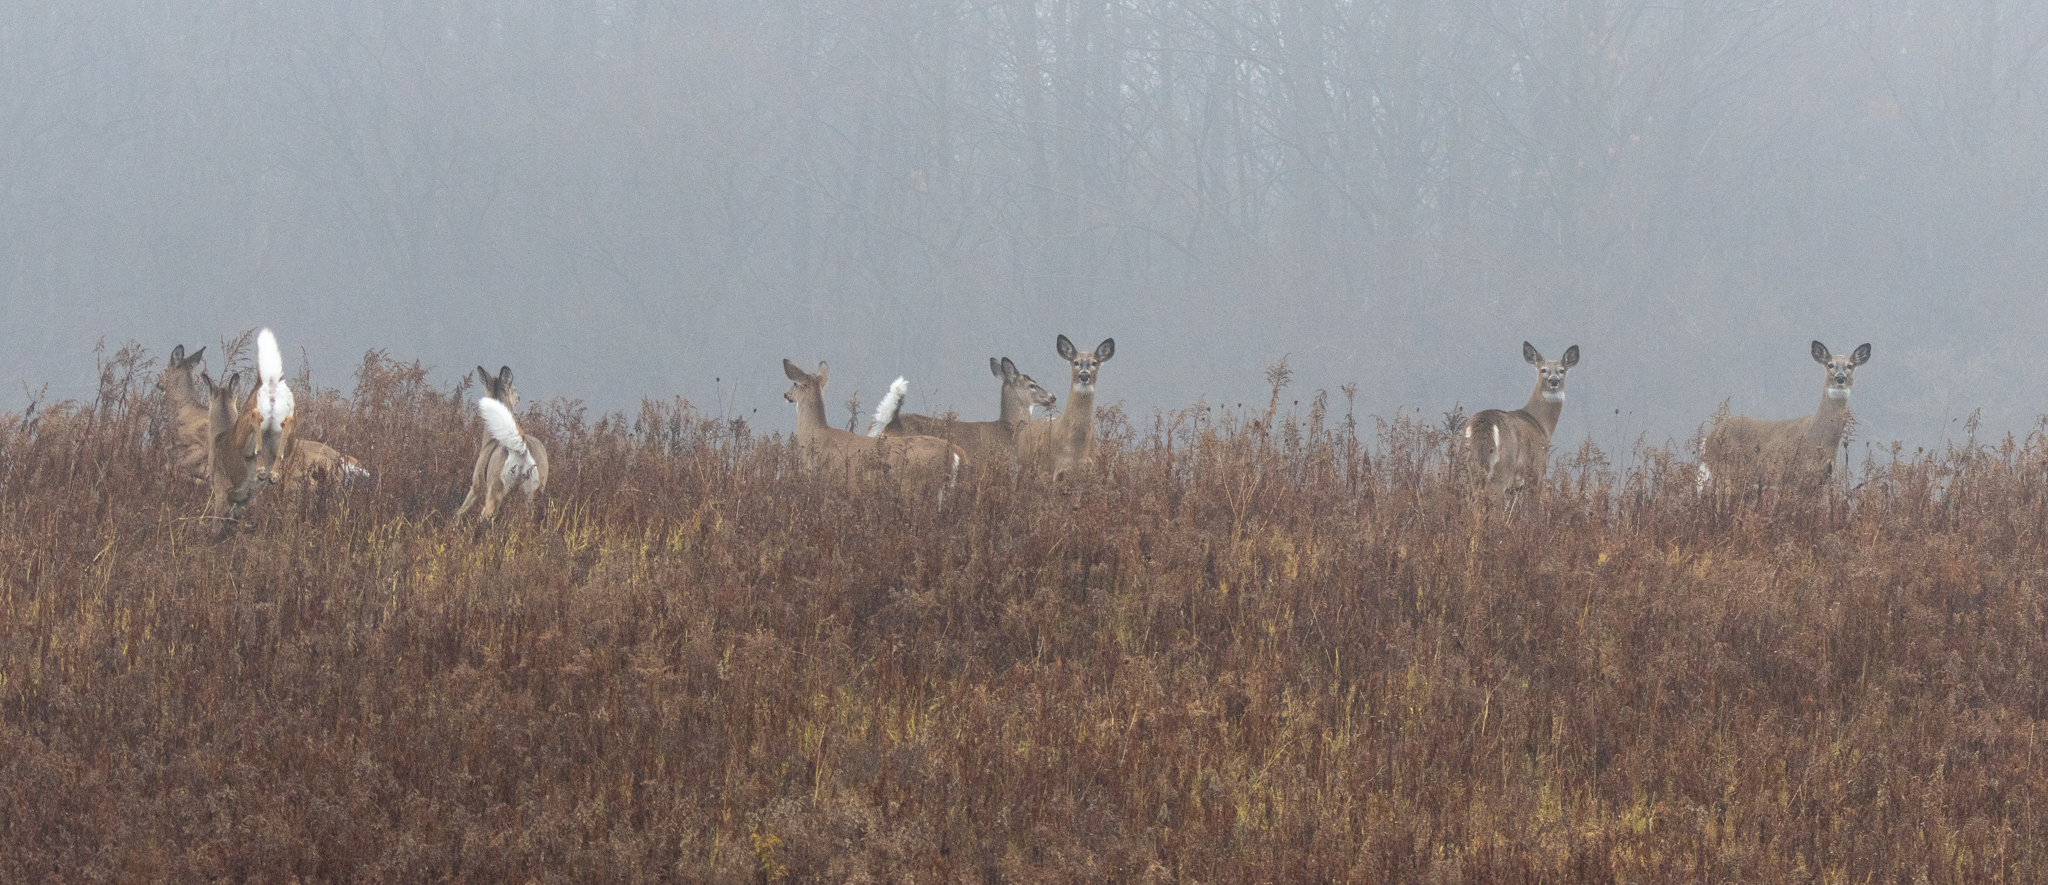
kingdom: Animalia
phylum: Chordata
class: Mammalia
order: Artiodactyla
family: Cervidae
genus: Odocoileus
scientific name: Odocoileus virginianus
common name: White-tailed deer
